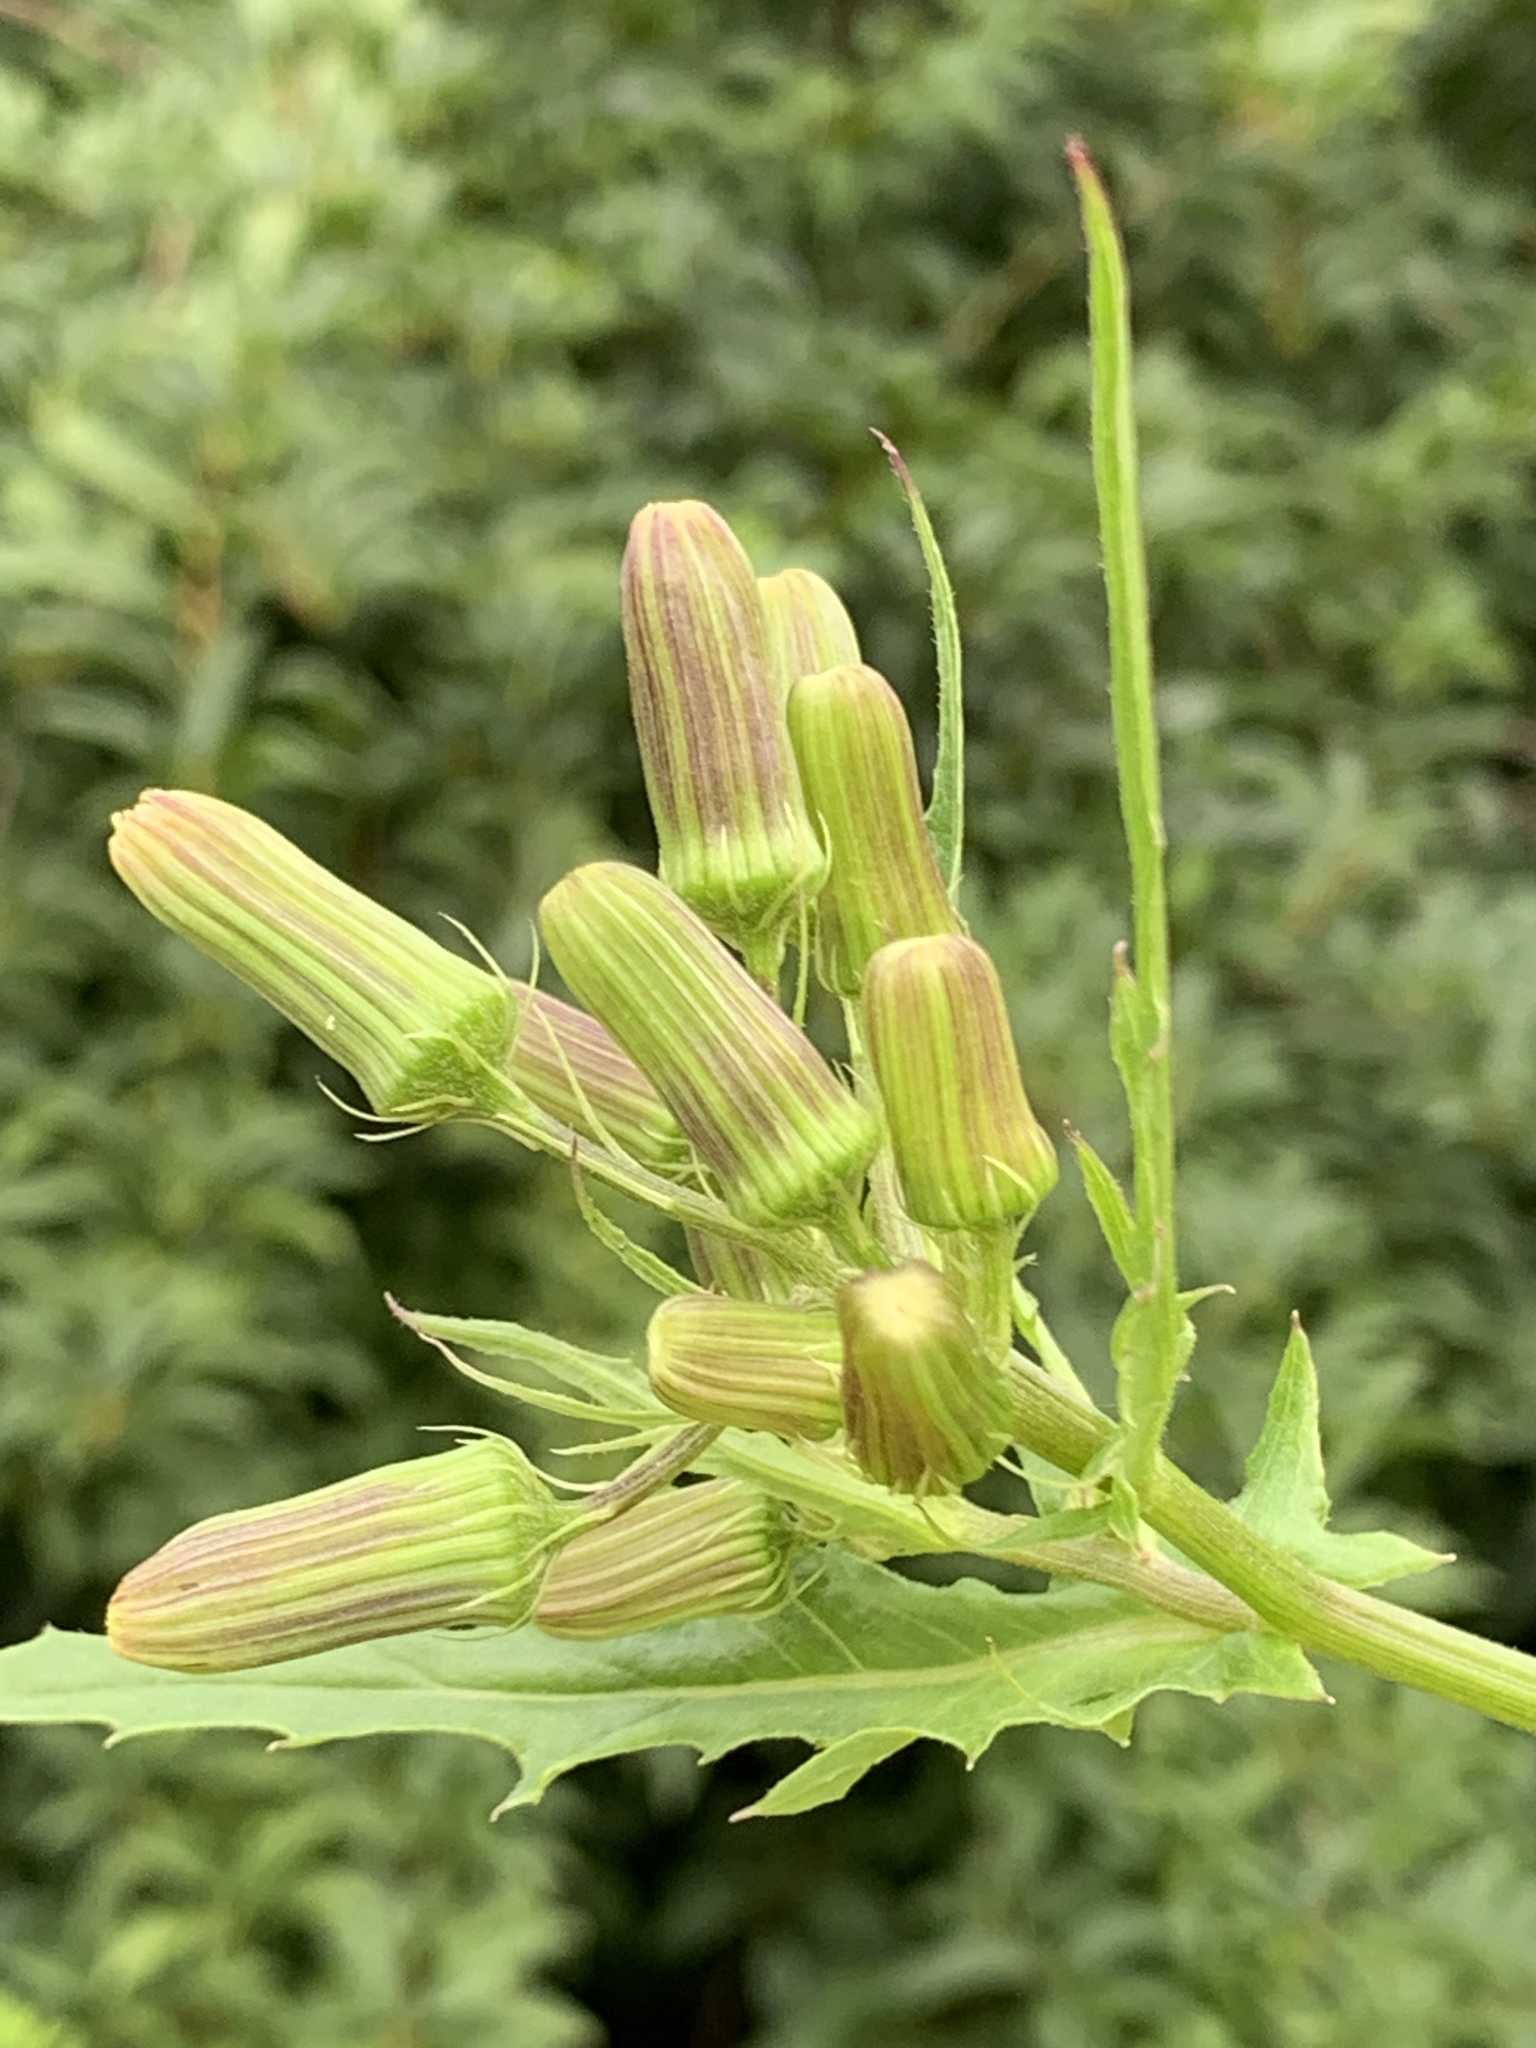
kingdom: Plantae
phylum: Tracheophyta
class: Magnoliopsida
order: Asterales
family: Asteraceae
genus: Erechtites
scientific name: Erechtites hieraciifolius
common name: American burnweed
